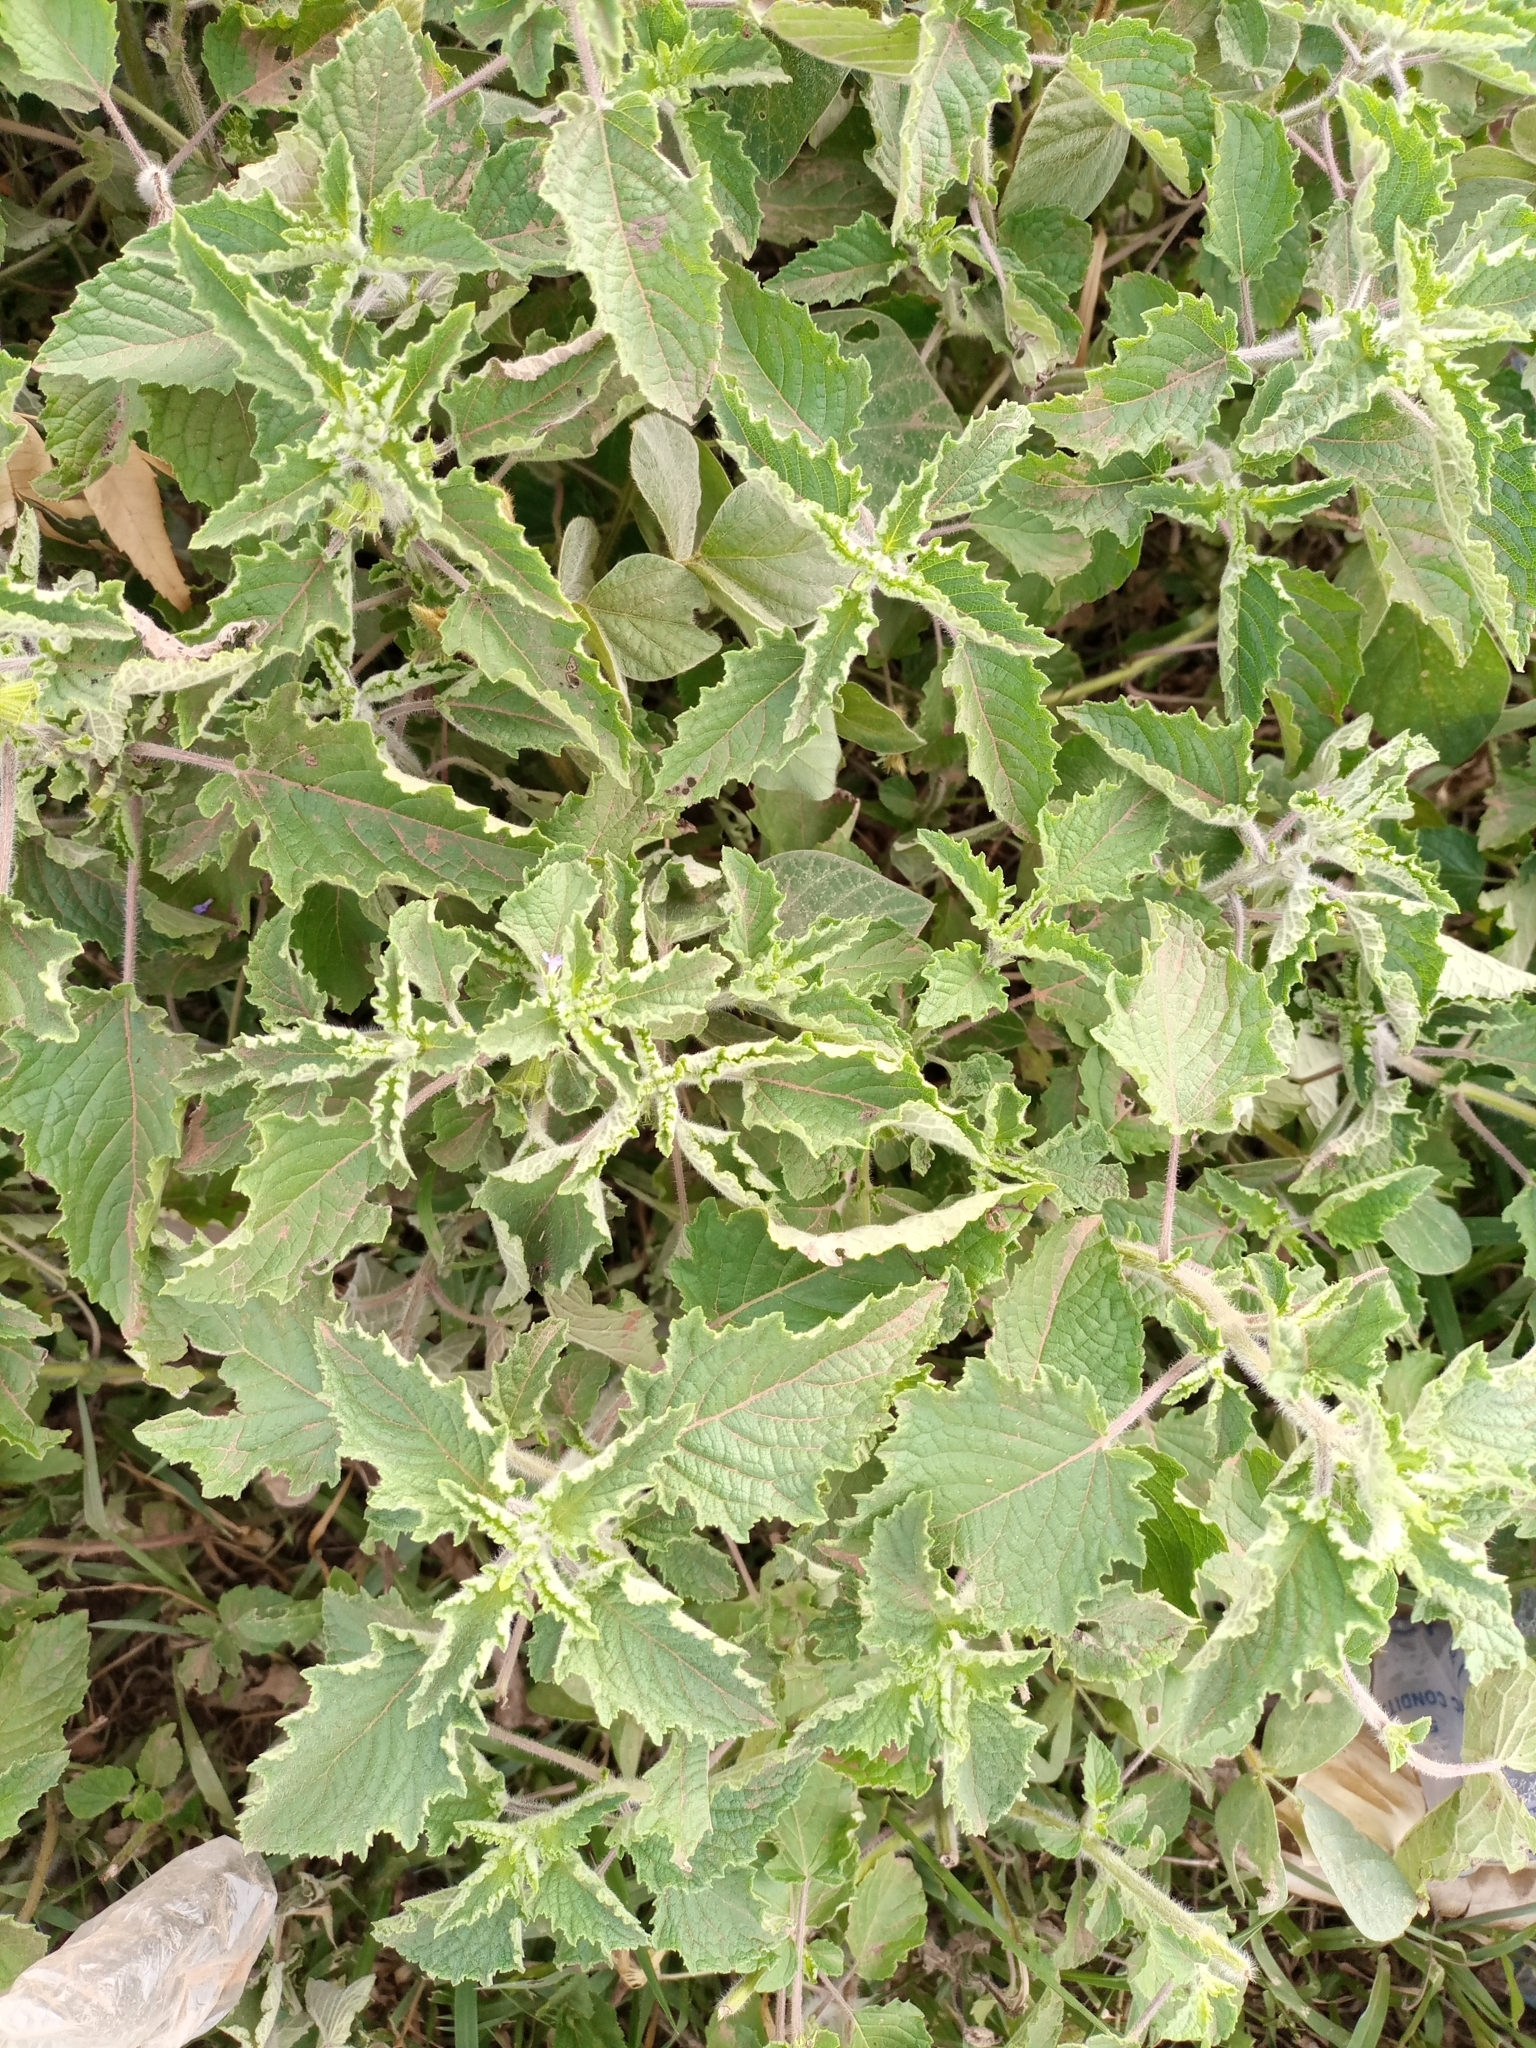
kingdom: Plantae
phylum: Tracheophyta
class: Magnoliopsida
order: Lamiales
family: Lamiaceae
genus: Mesosphaerum
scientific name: Mesosphaerum suaveolens
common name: Pignut
